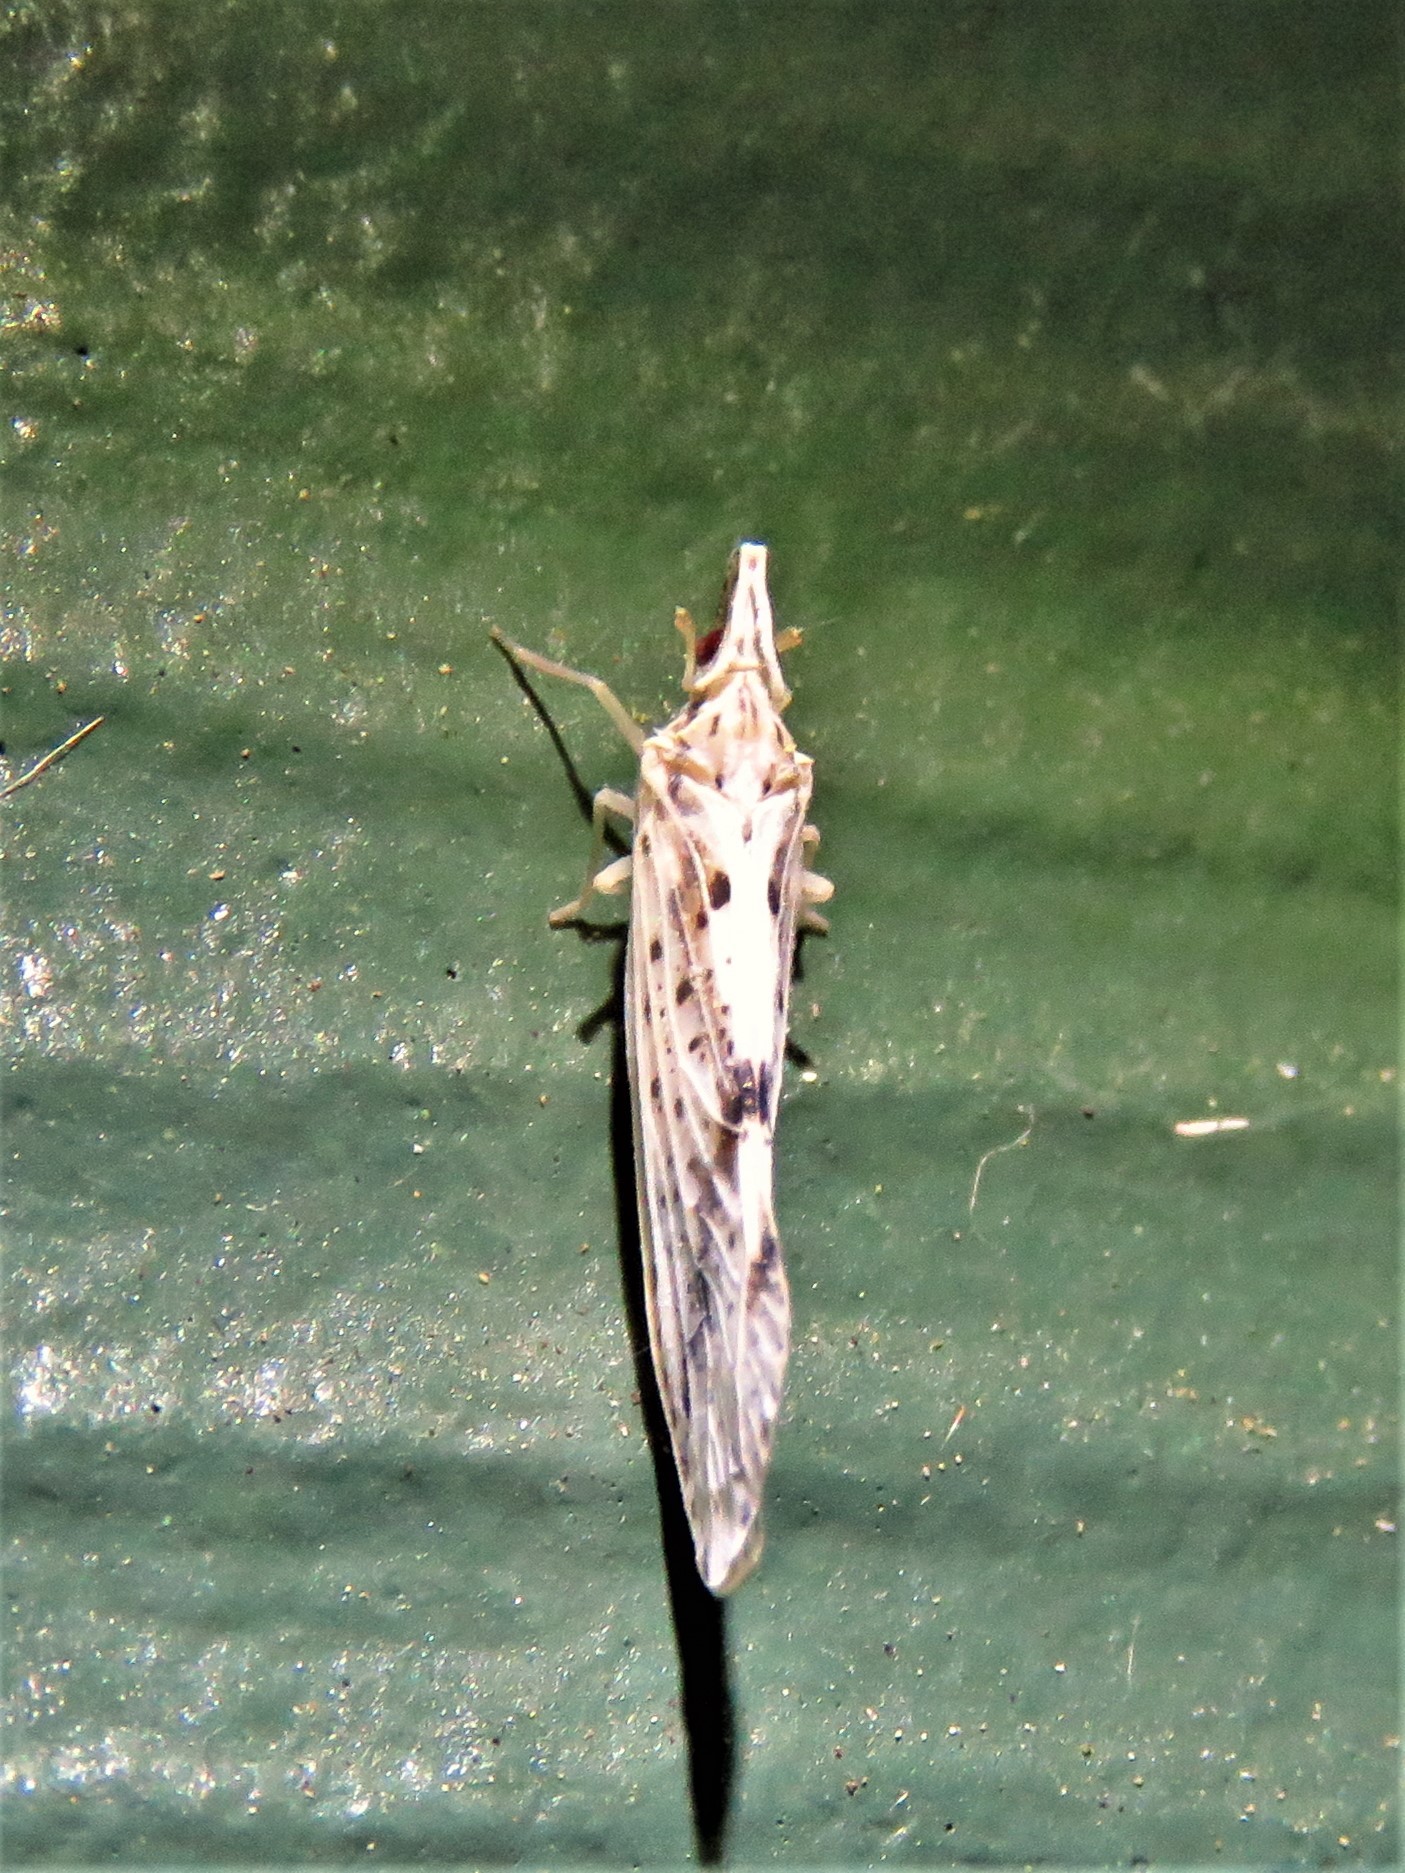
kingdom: Animalia
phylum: Arthropoda
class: Insecta
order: Hemiptera
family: Derbidae
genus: Otiocerus
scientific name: Otiocerus francilloni
